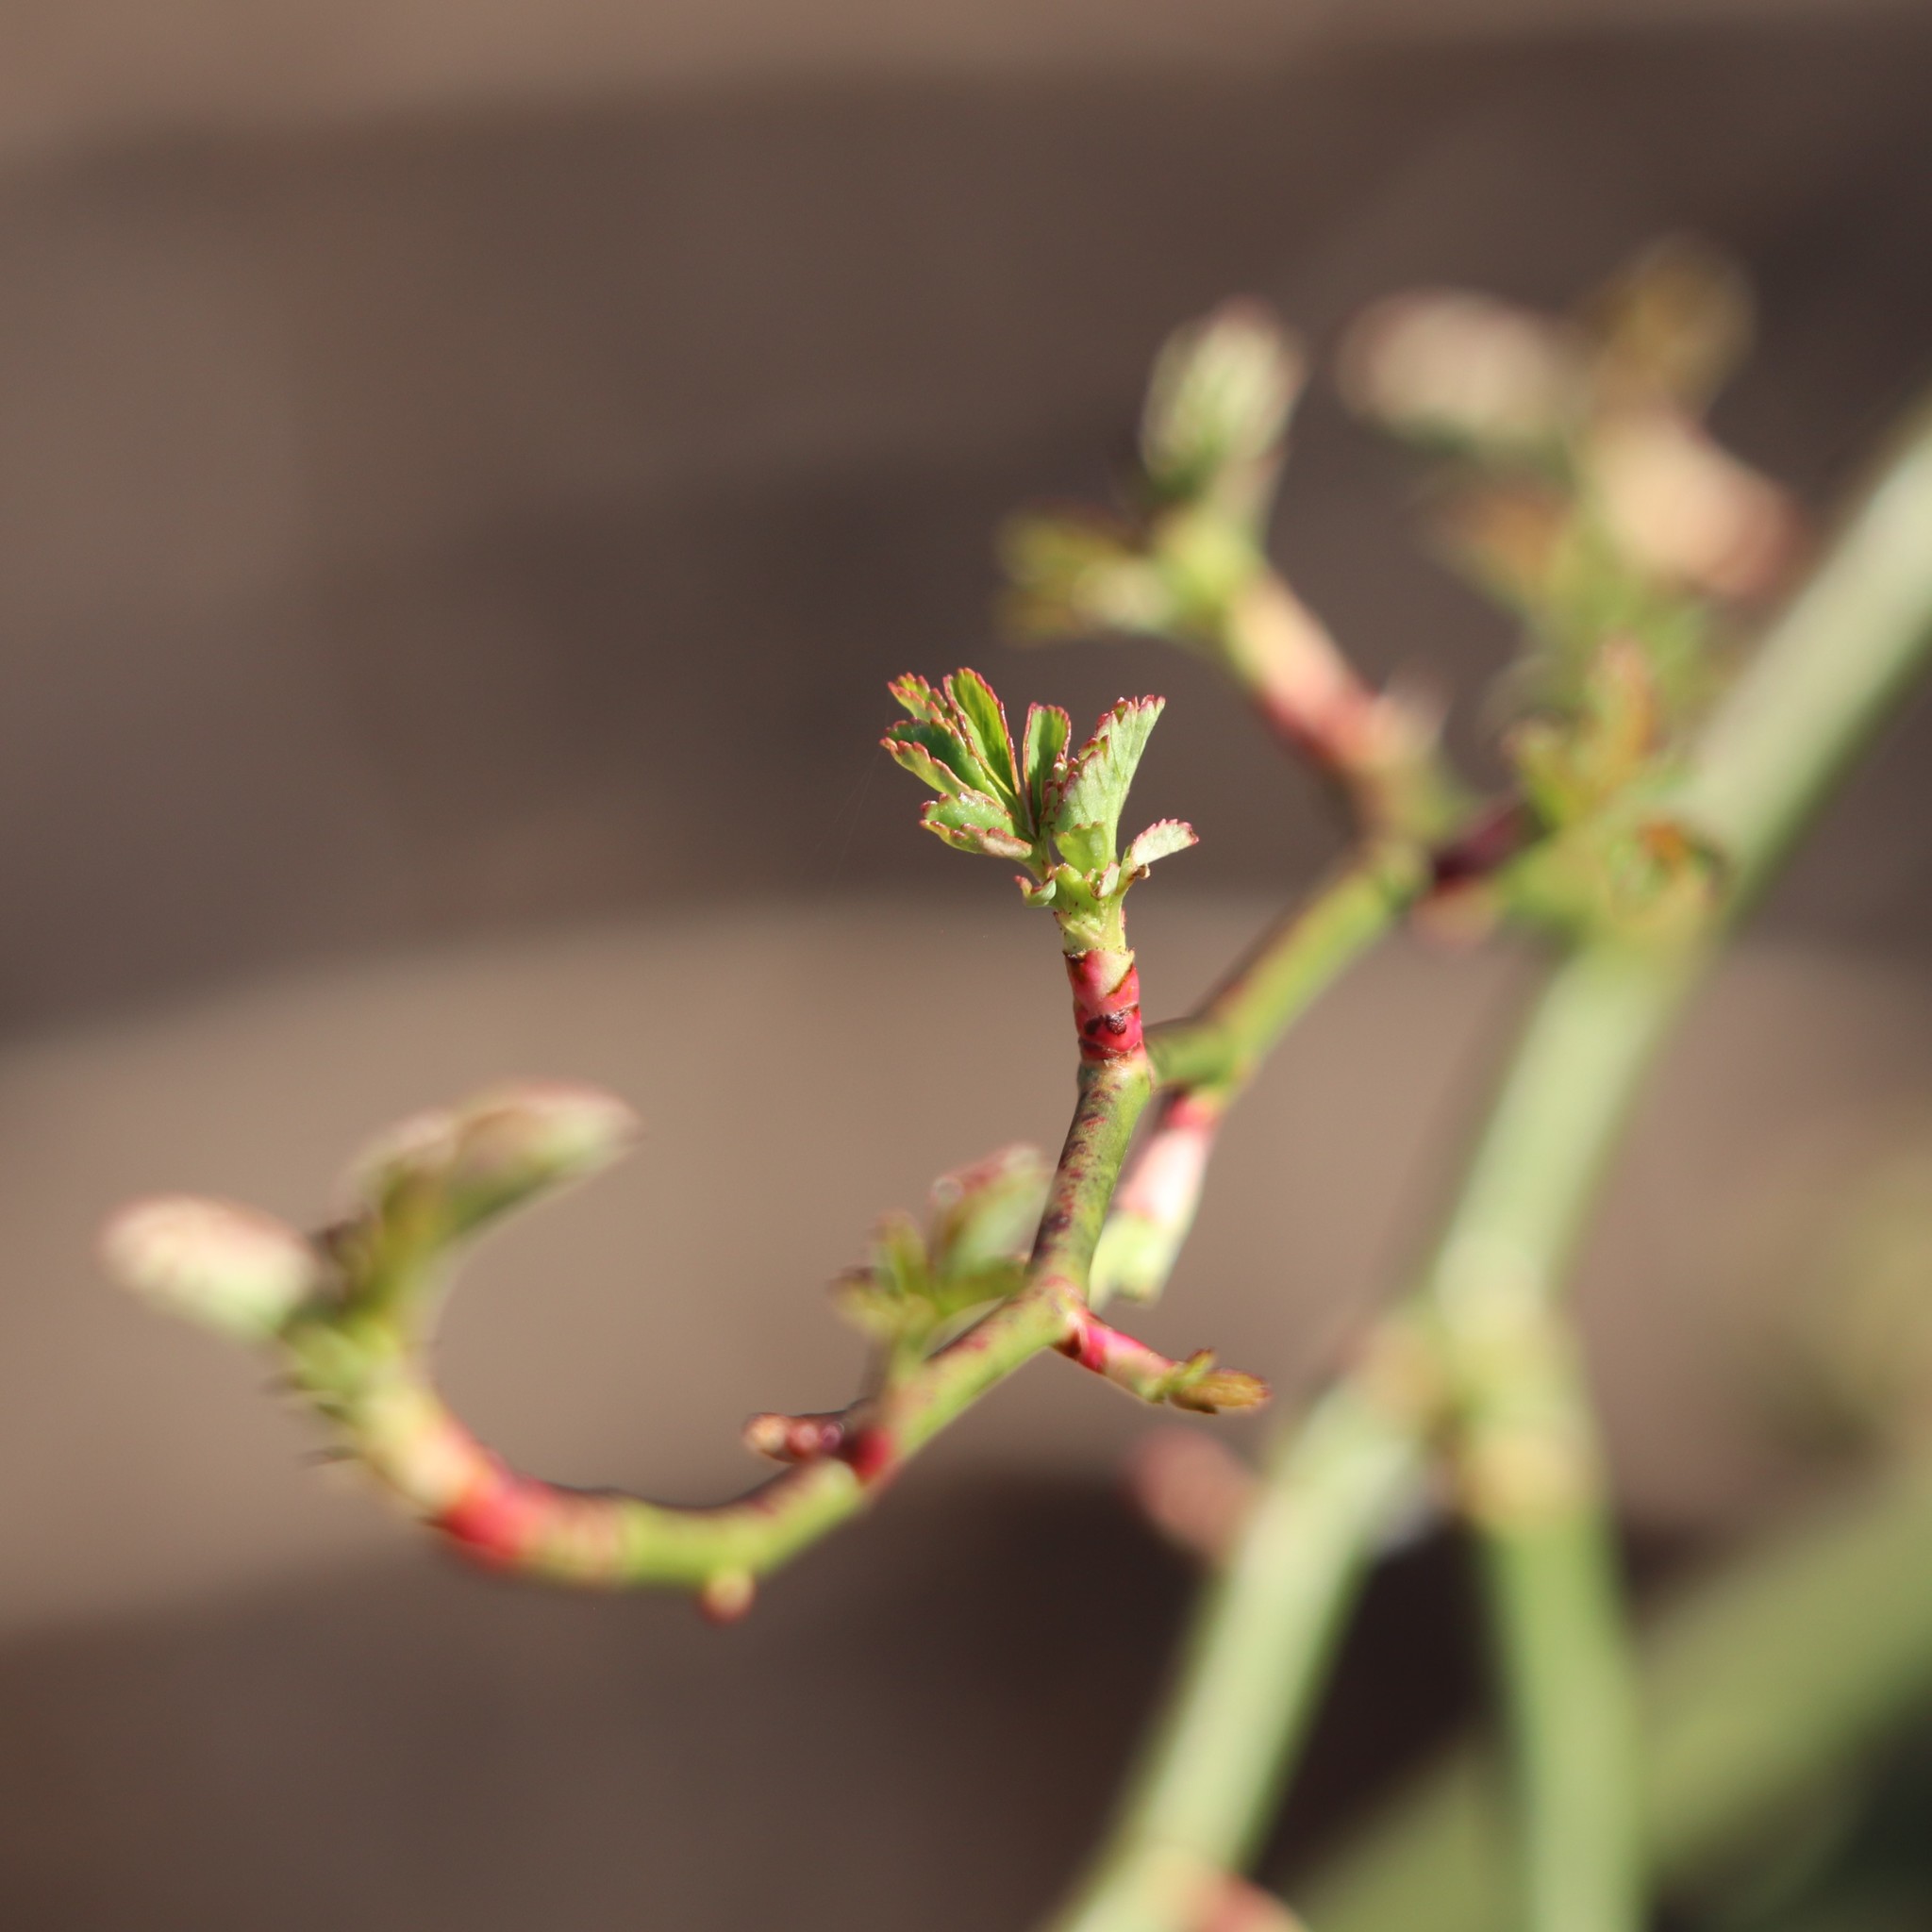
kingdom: Plantae
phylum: Tracheophyta
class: Magnoliopsida
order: Rosales
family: Rosaceae
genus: Rosa
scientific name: Rosa multiflora
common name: Multiflora rose
